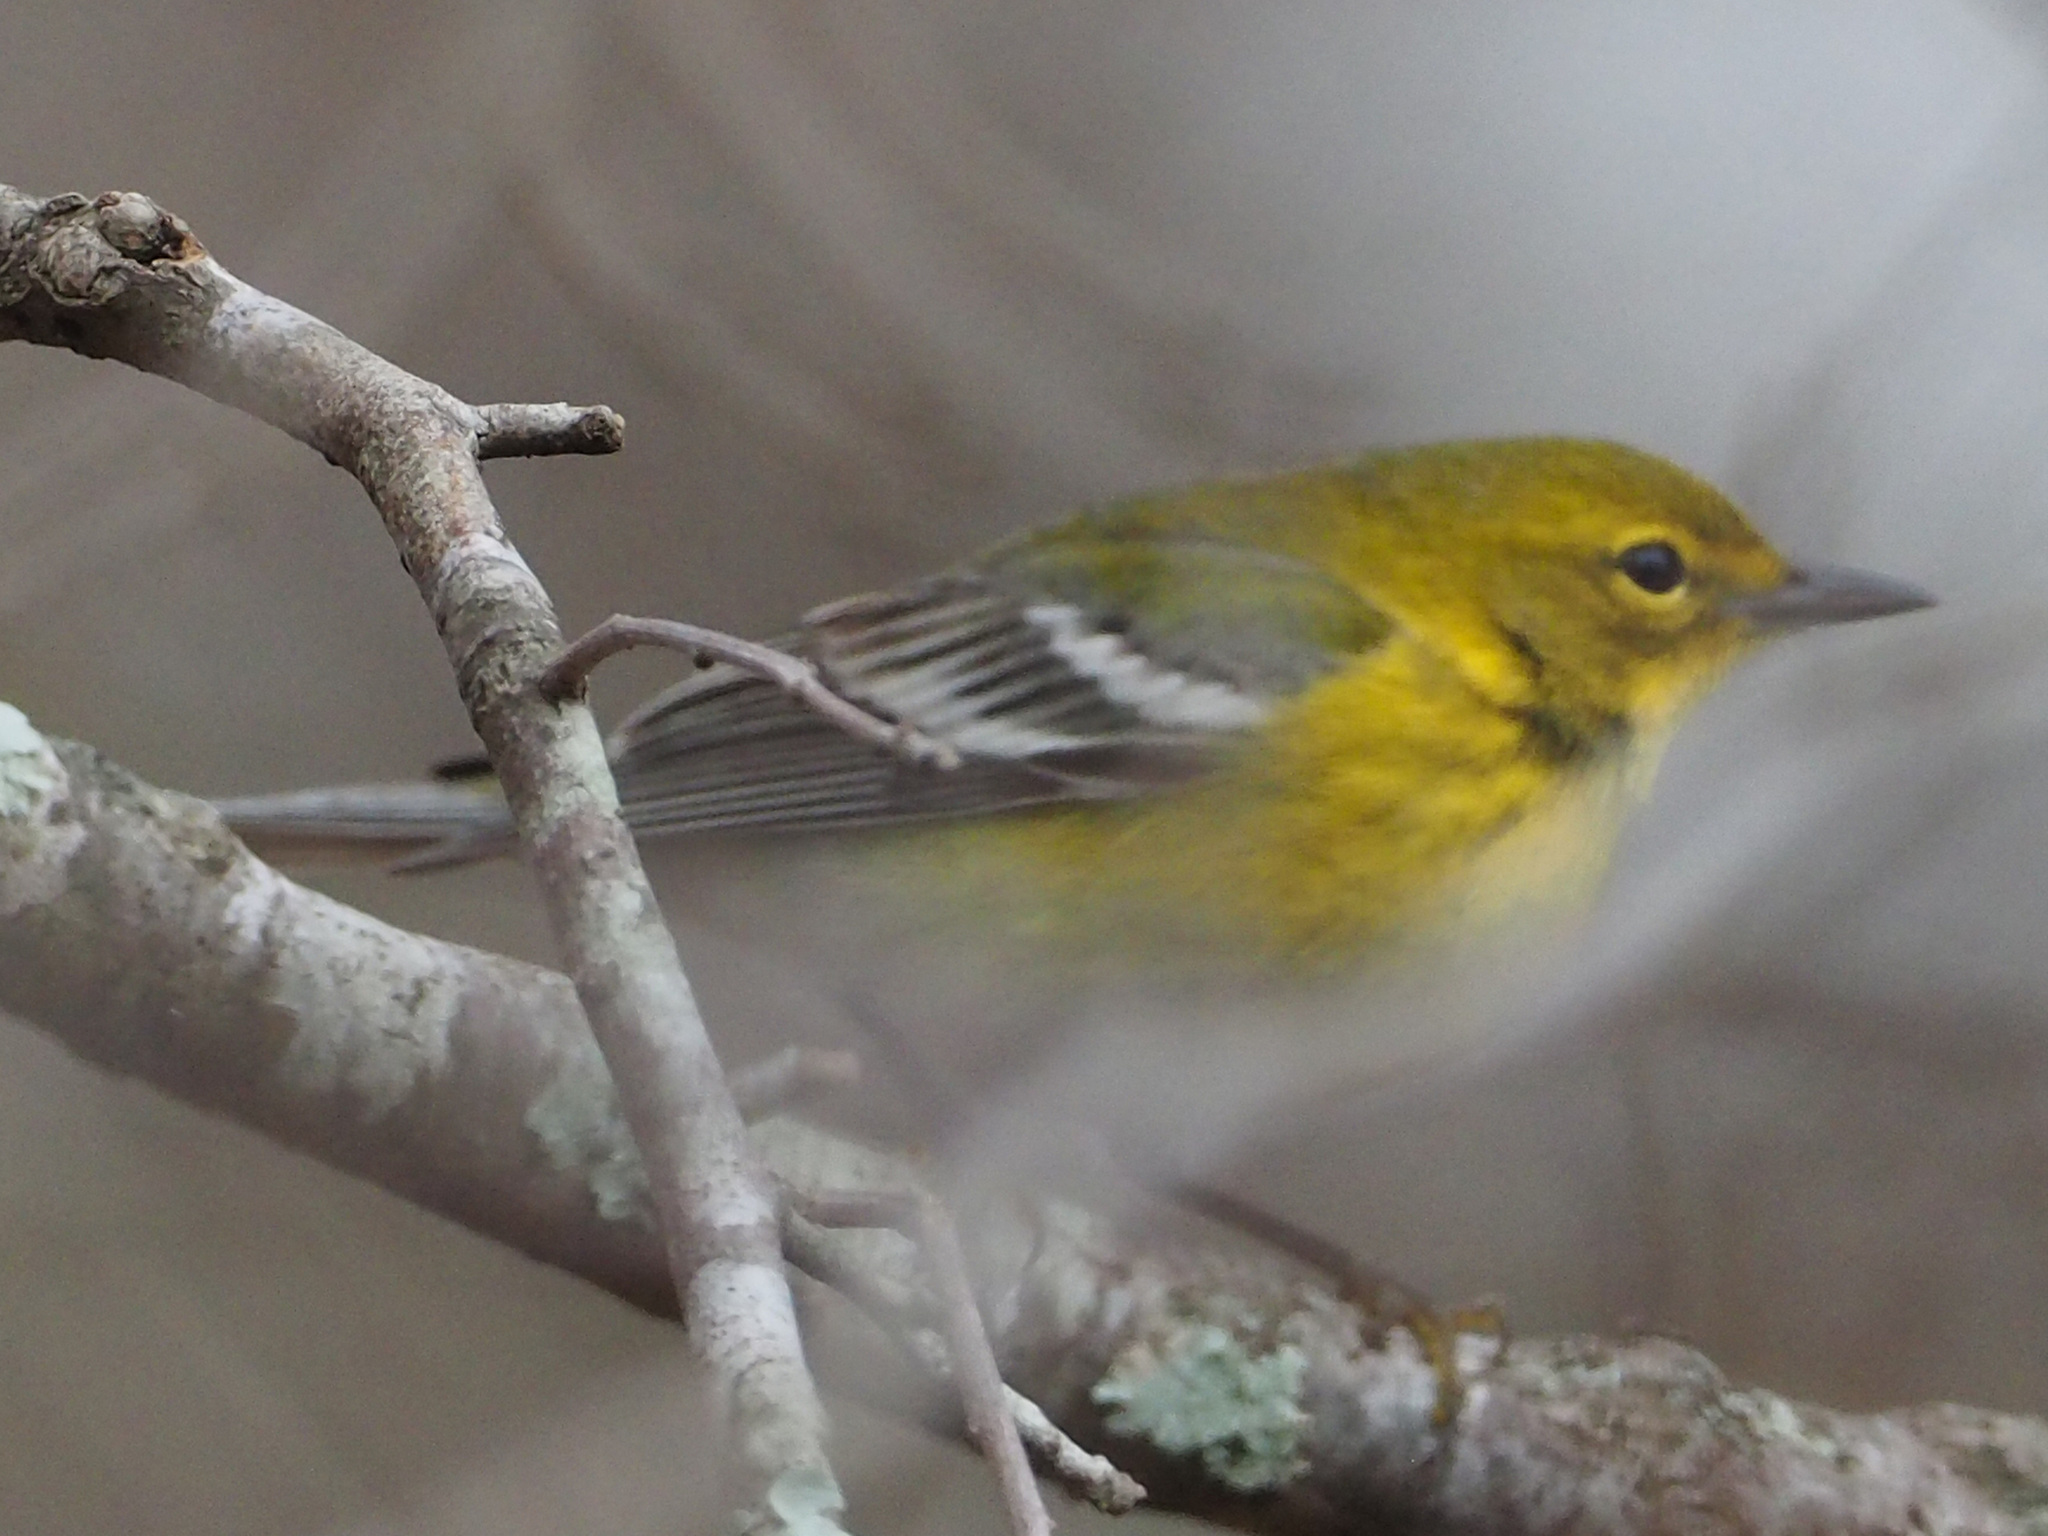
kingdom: Animalia
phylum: Chordata
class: Aves
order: Passeriformes
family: Parulidae
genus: Setophaga
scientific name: Setophaga pinus
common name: Pine warbler
